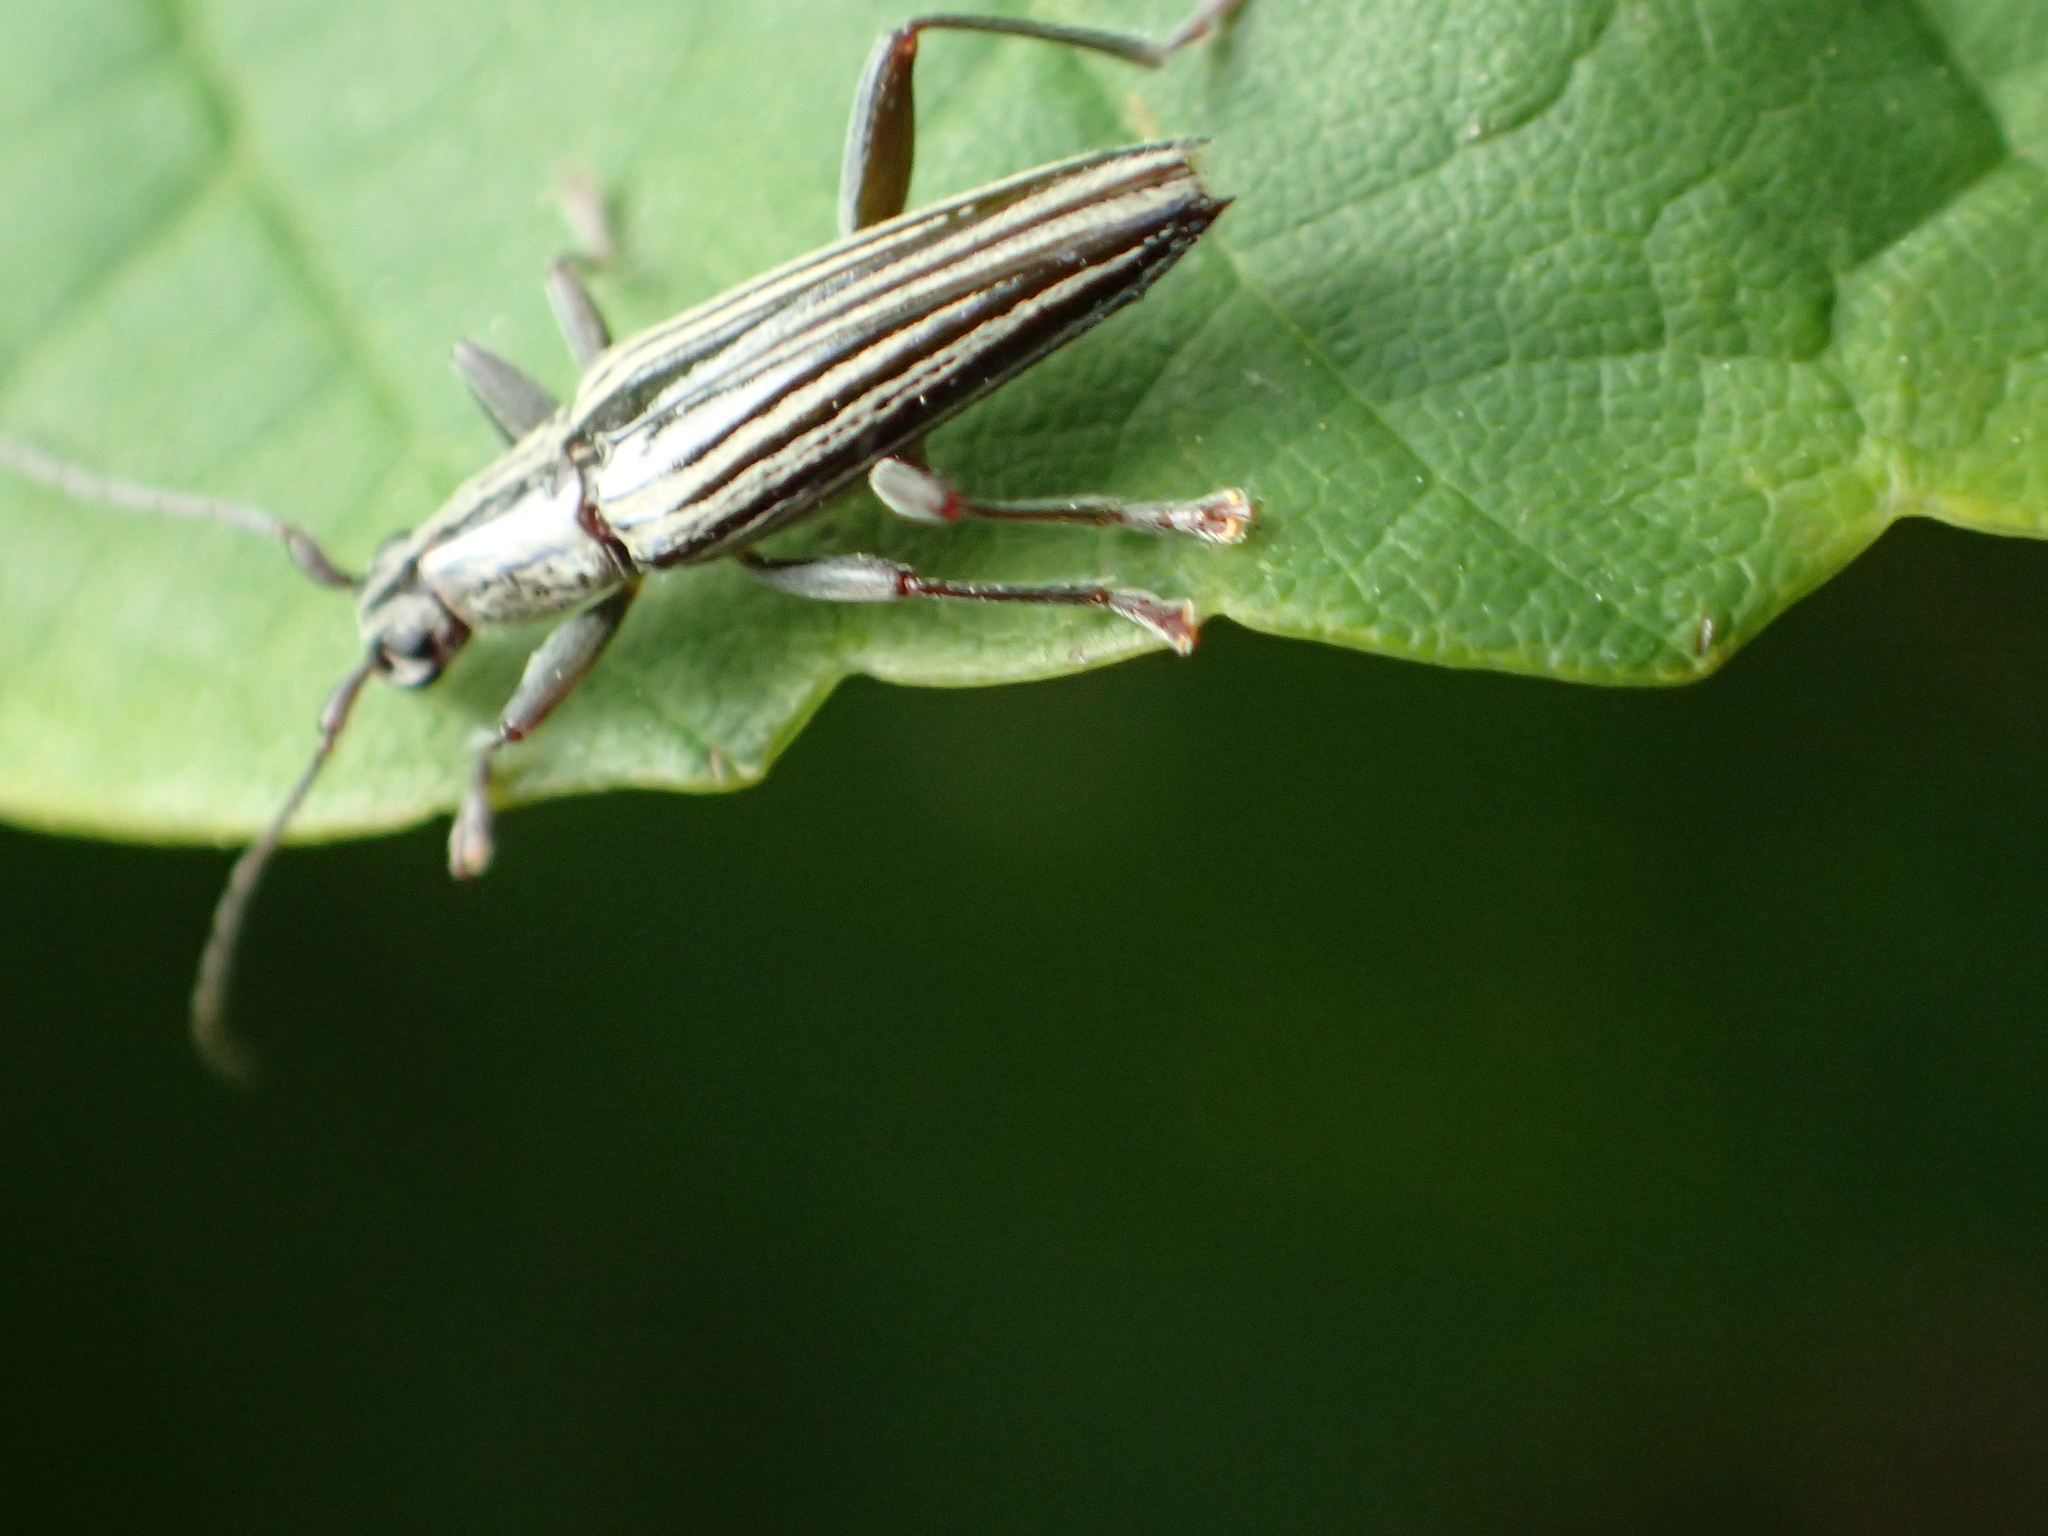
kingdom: Animalia
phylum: Arthropoda
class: Insecta
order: Coleoptera
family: Cerambycidae
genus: Coptomma
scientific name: Coptomma sulcatum
